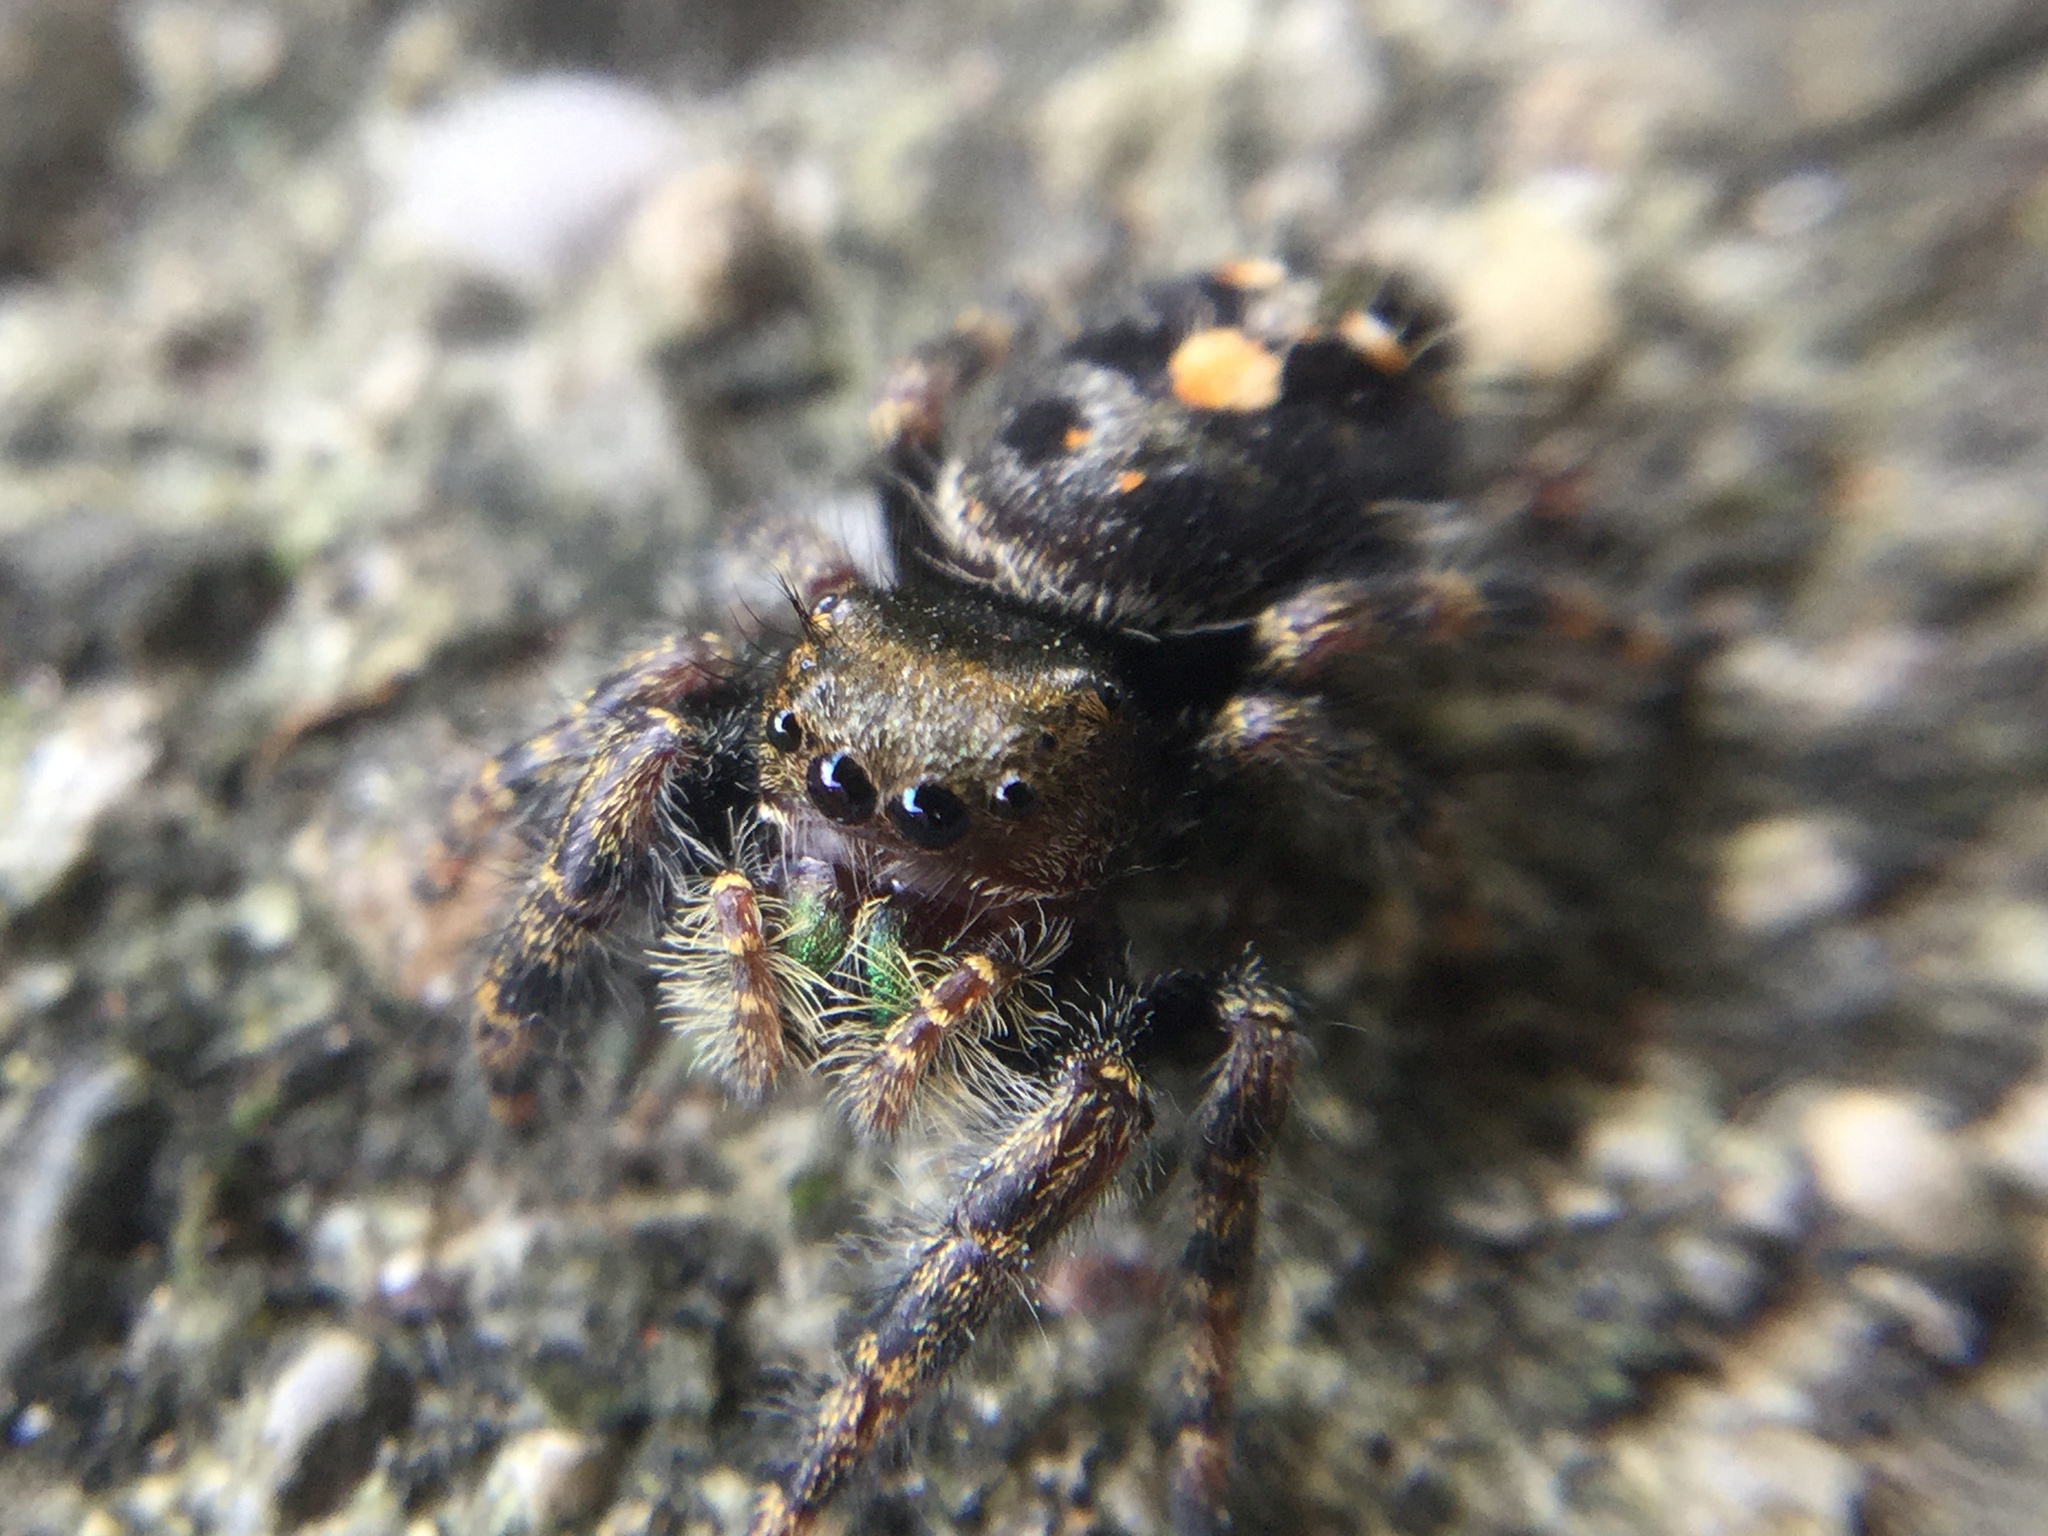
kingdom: Animalia
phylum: Arthropoda
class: Arachnida
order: Araneae
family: Salticidae
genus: Phidippus
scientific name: Phidippus audax
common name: Bold jumper
